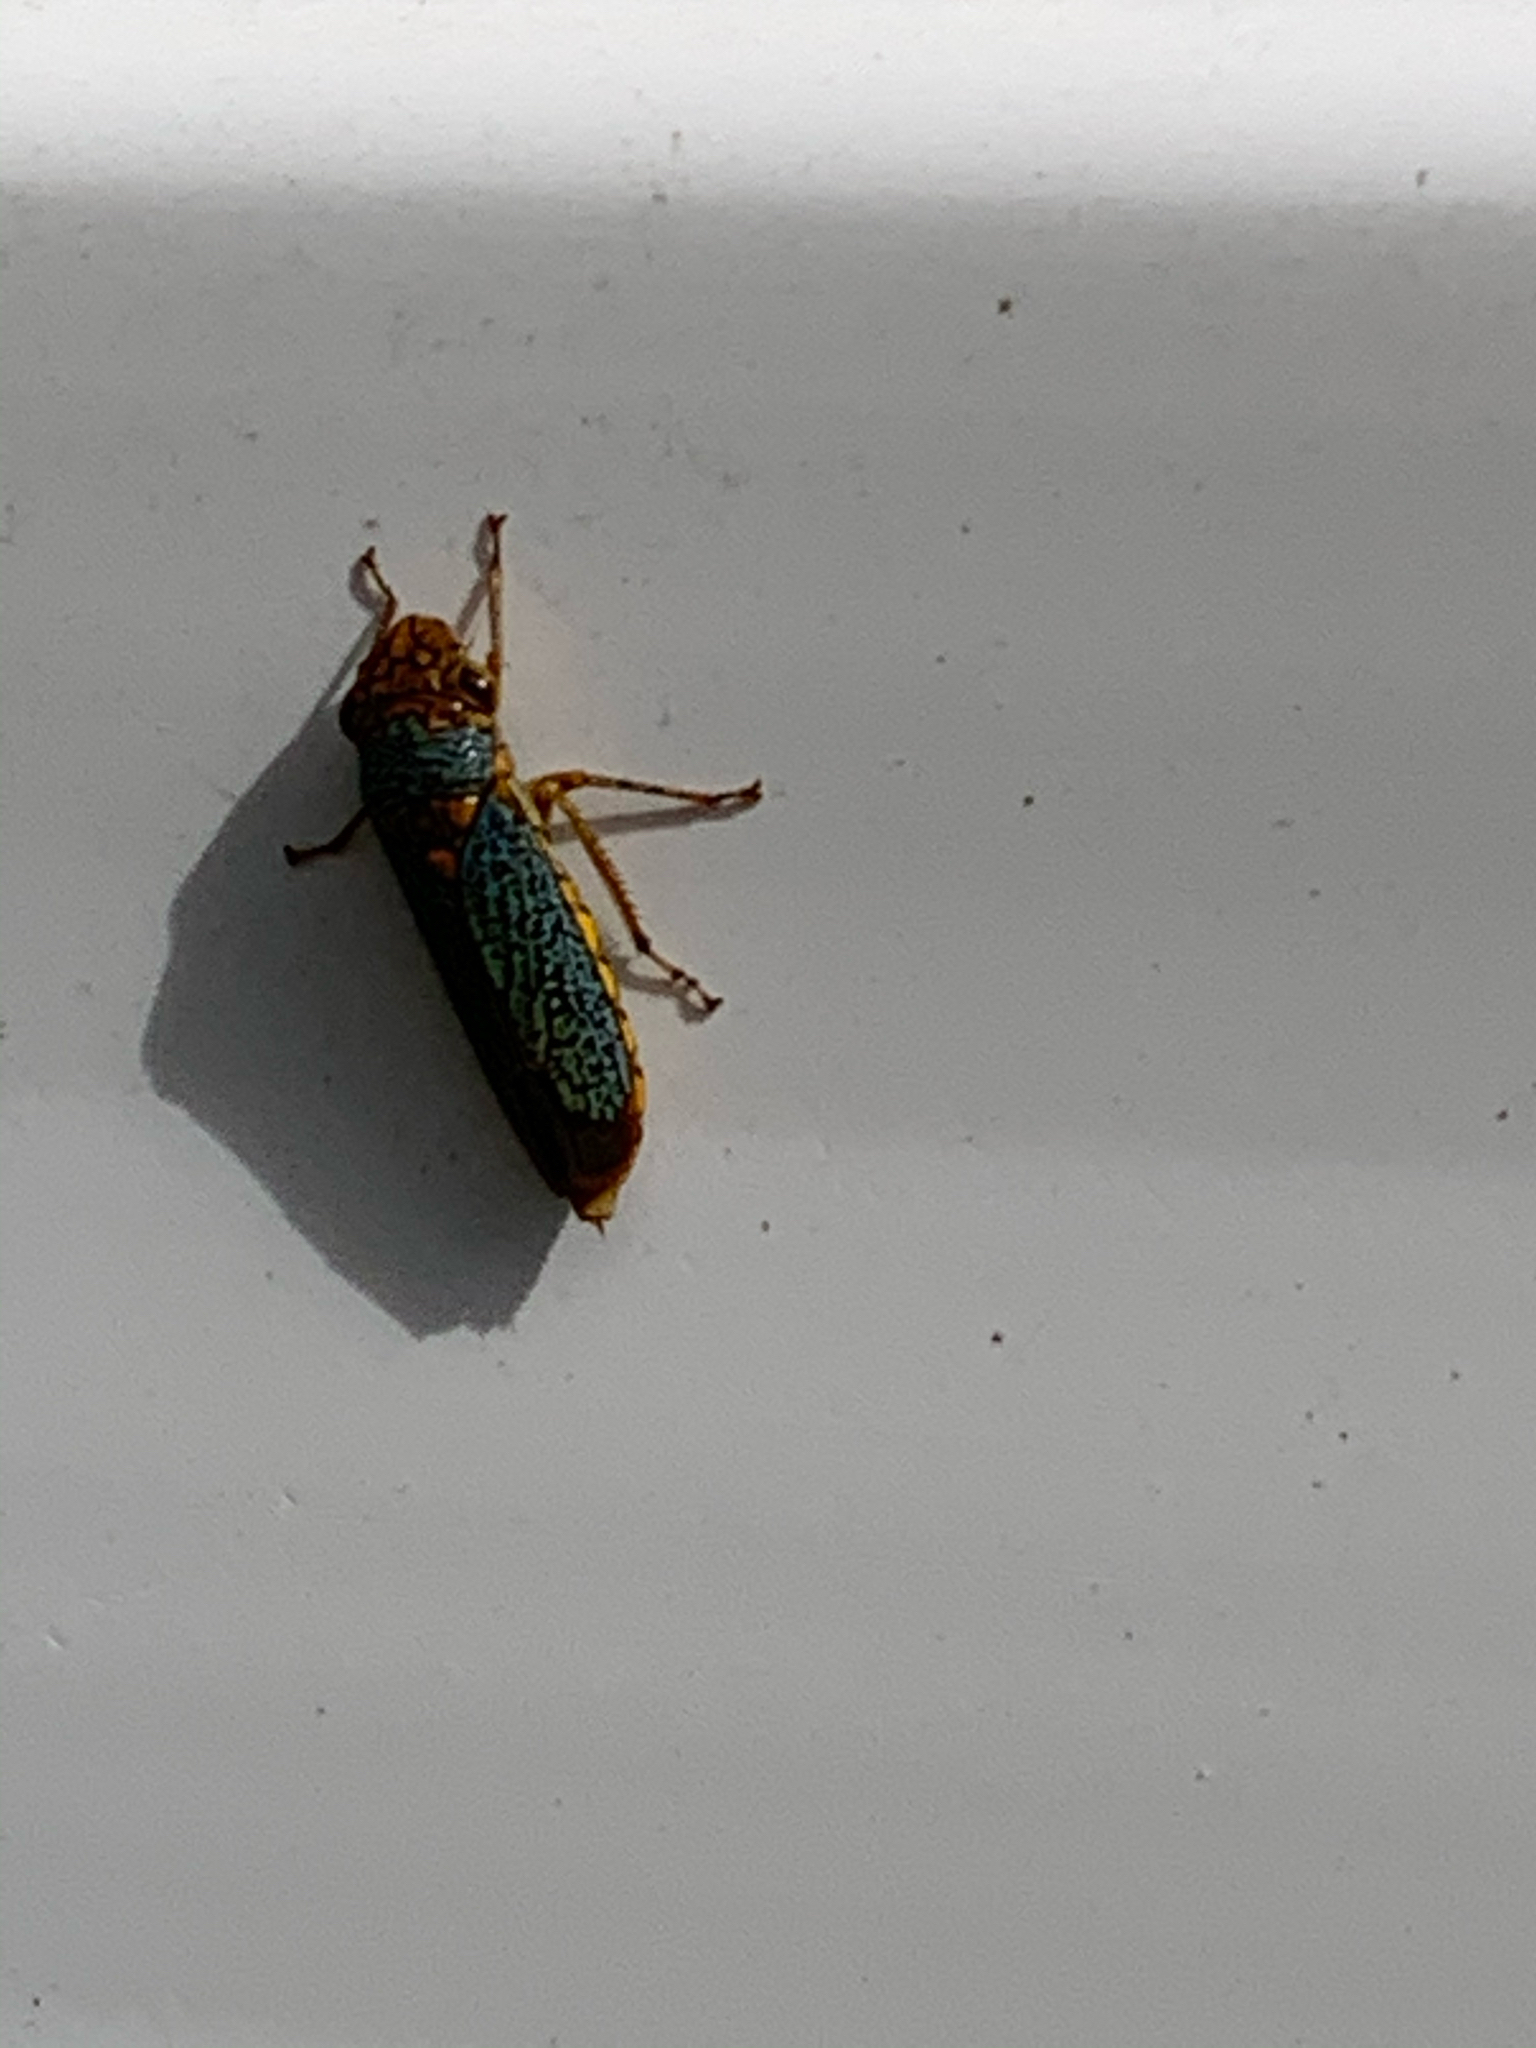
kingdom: Animalia
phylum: Arthropoda
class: Insecta
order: Hemiptera
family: Cicadellidae
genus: Oncometopia
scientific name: Oncometopia orbona
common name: Broad-headed sharpshooter
